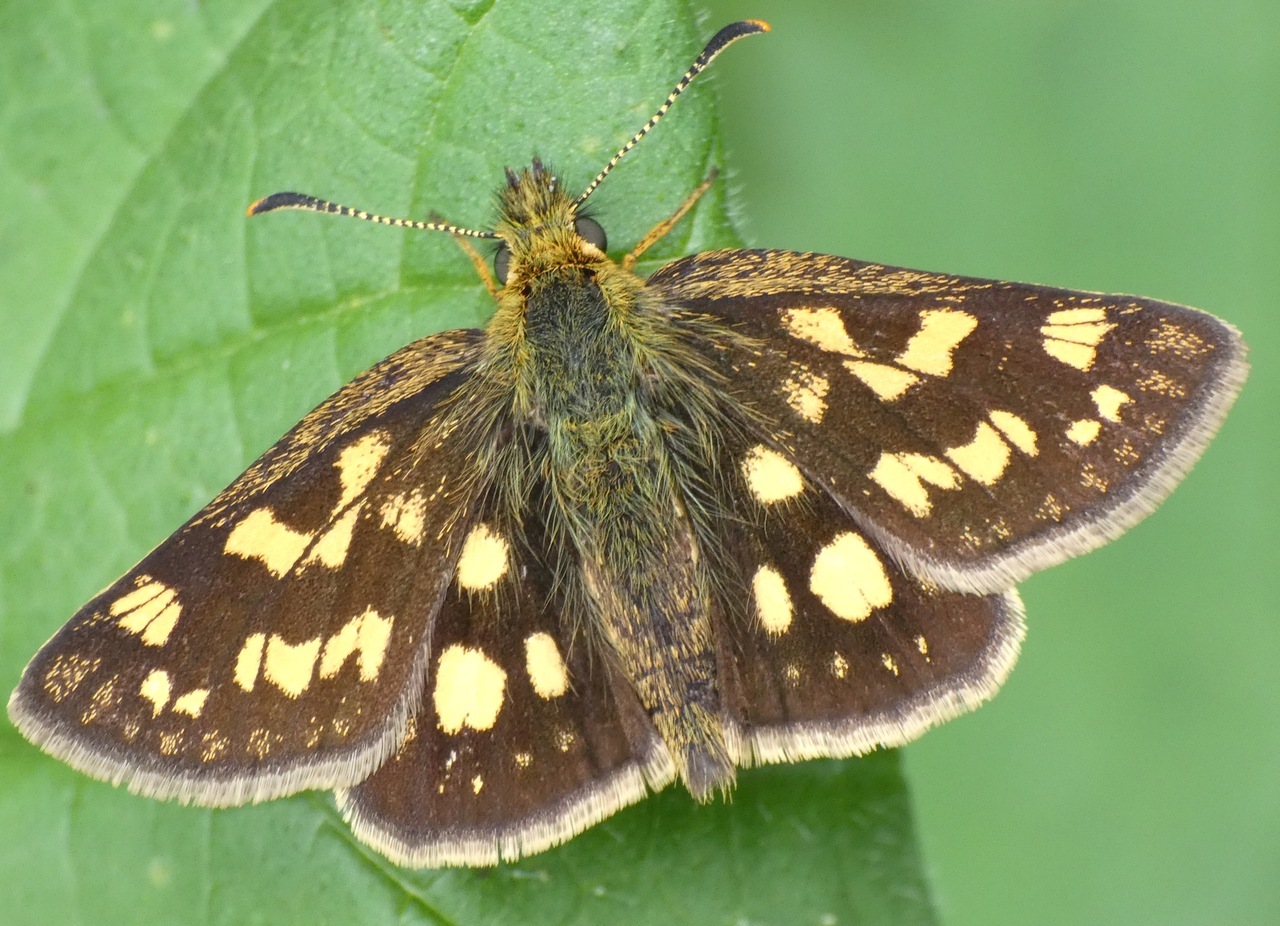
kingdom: Animalia
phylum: Arthropoda
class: Insecta
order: Lepidoptera
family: Hesperiidae
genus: Carterocephalus
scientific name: Carterocephalus palaemon
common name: Chequered skipper
